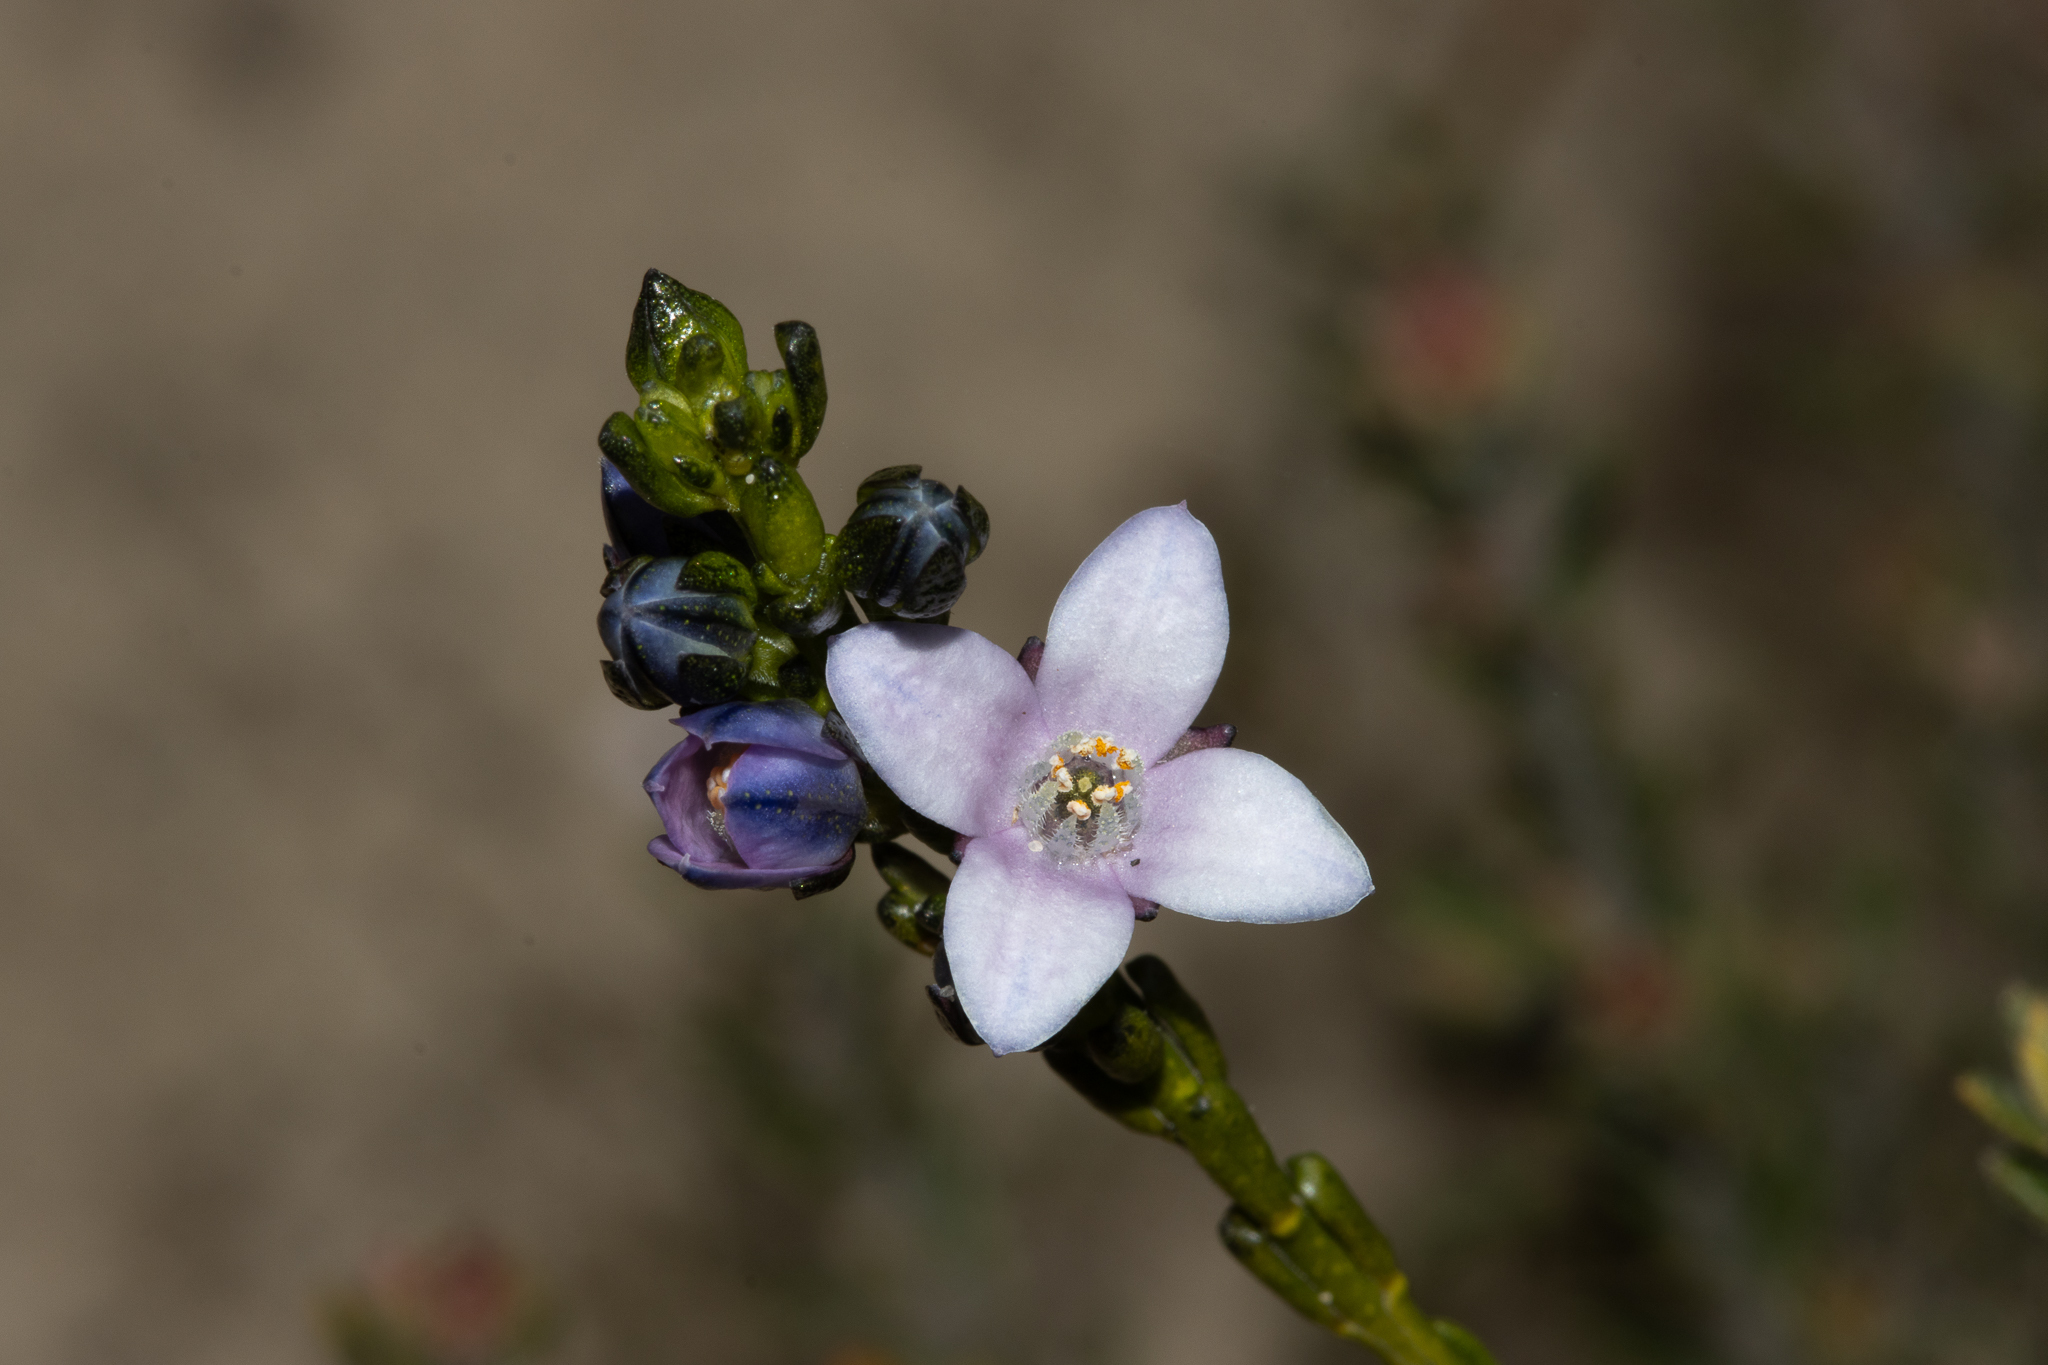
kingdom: Plantae
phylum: Tracheophyta
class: Magnoliopsida
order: Sapindales
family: Rutaceae
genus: Cyanothamnus
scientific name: Cyanothamnus coerulescens
